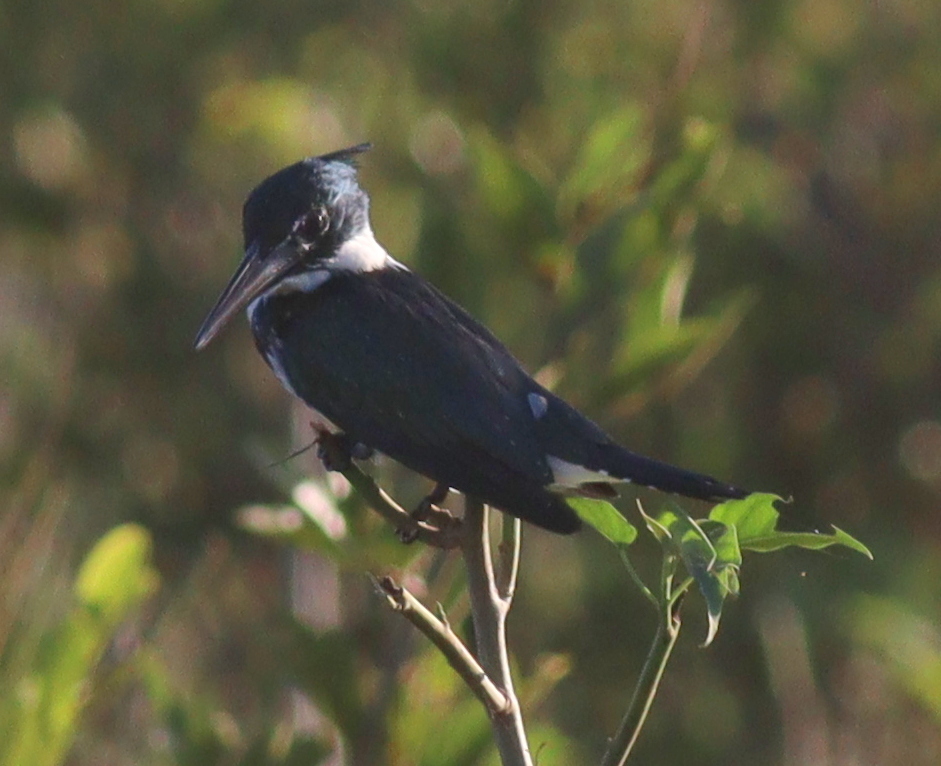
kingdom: Animalia
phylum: Chordata
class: Aves
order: Coraciiformes
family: Alcedinidae
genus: Chloroceryle
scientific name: Chloroceryle amazona
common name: Amazon kingfisher
